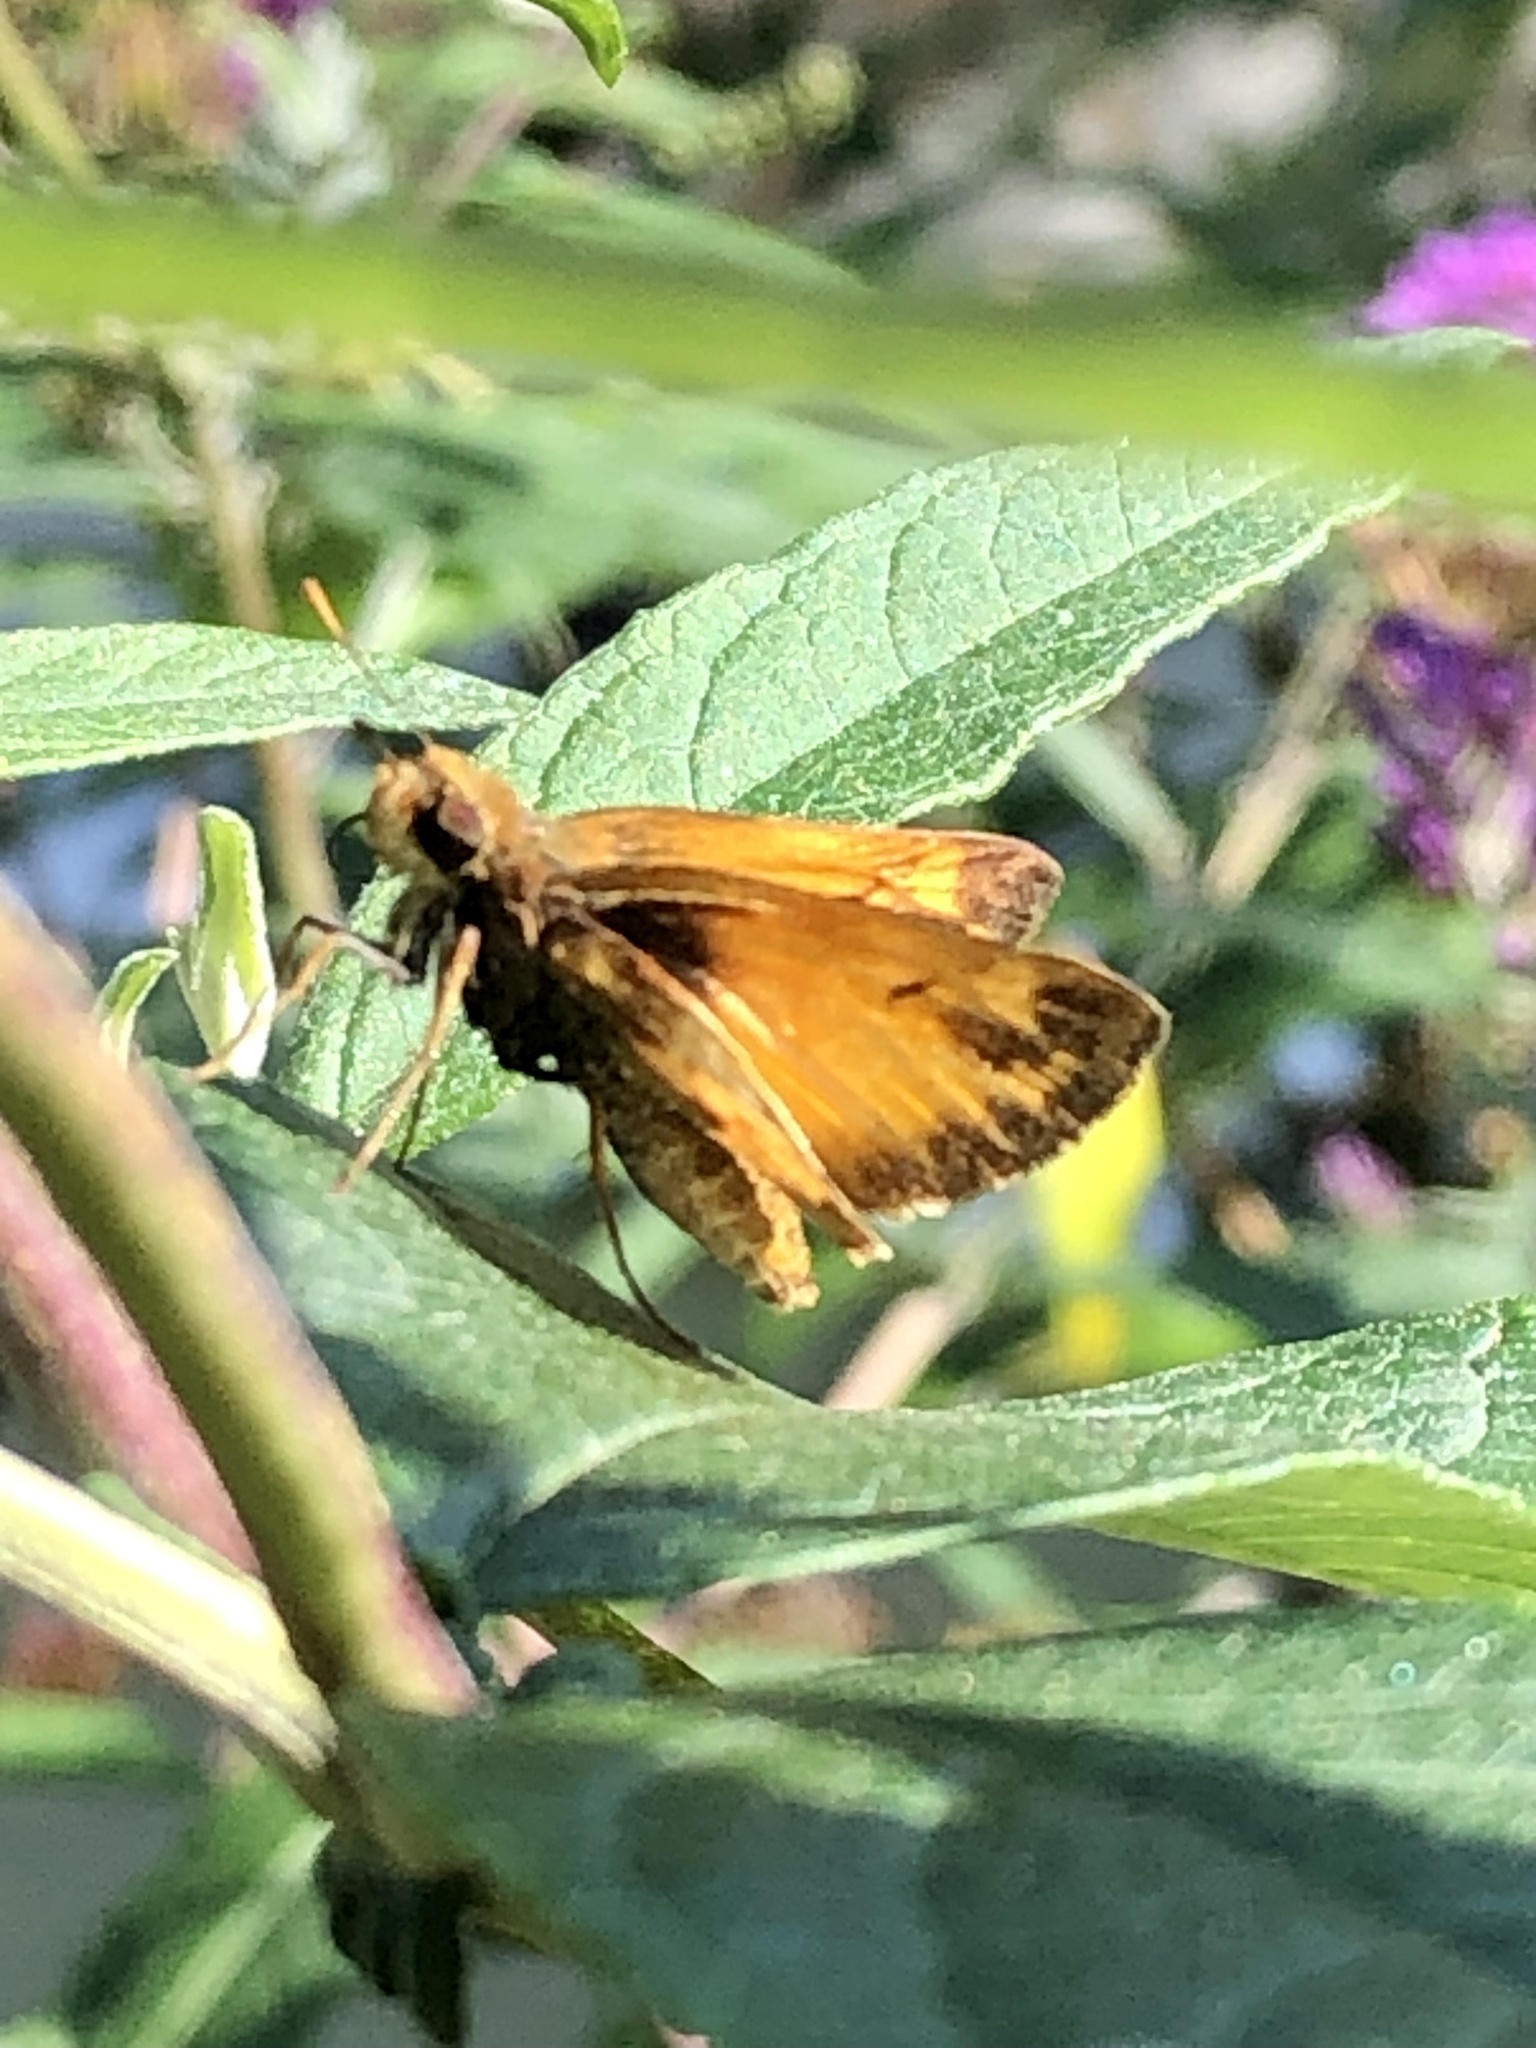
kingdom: Animalia
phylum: Arthropoda
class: Insecta
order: Lepidoptera
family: Hesperiidae
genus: Lon
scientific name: Lon zabulon
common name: Zabulon skipper
